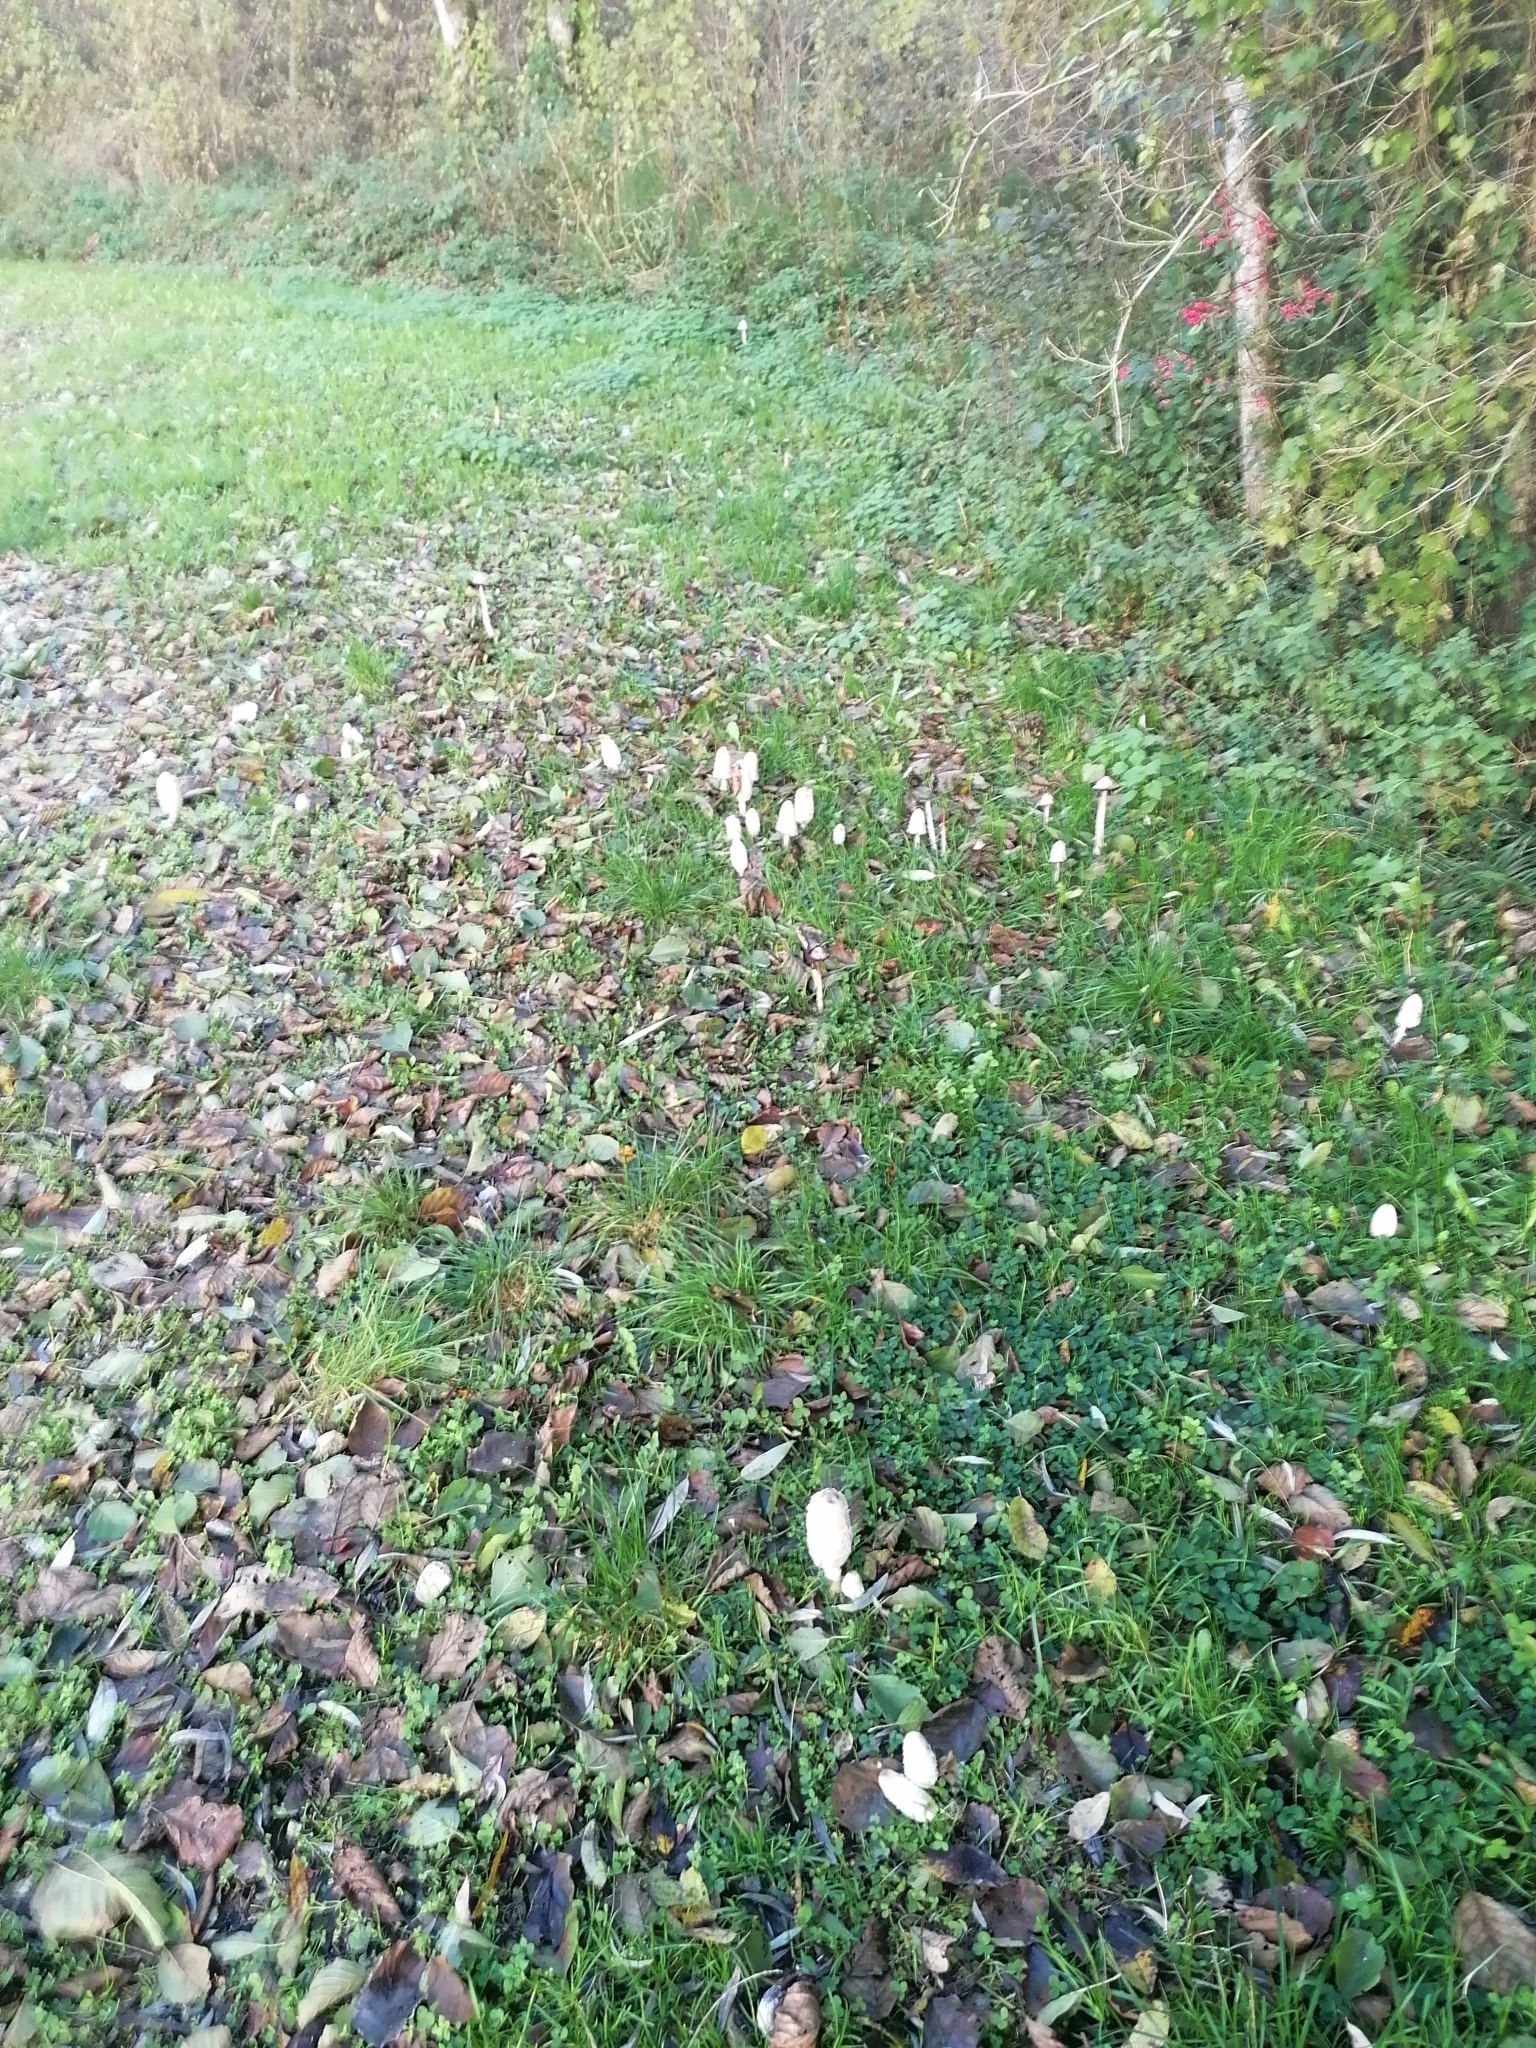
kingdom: Fungi
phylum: Basidiomycota
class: Agaricomycetes
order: Agaricales
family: Agaricaceae
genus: Coprinus
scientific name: Coprinus comatus
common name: Lawyer's wig
